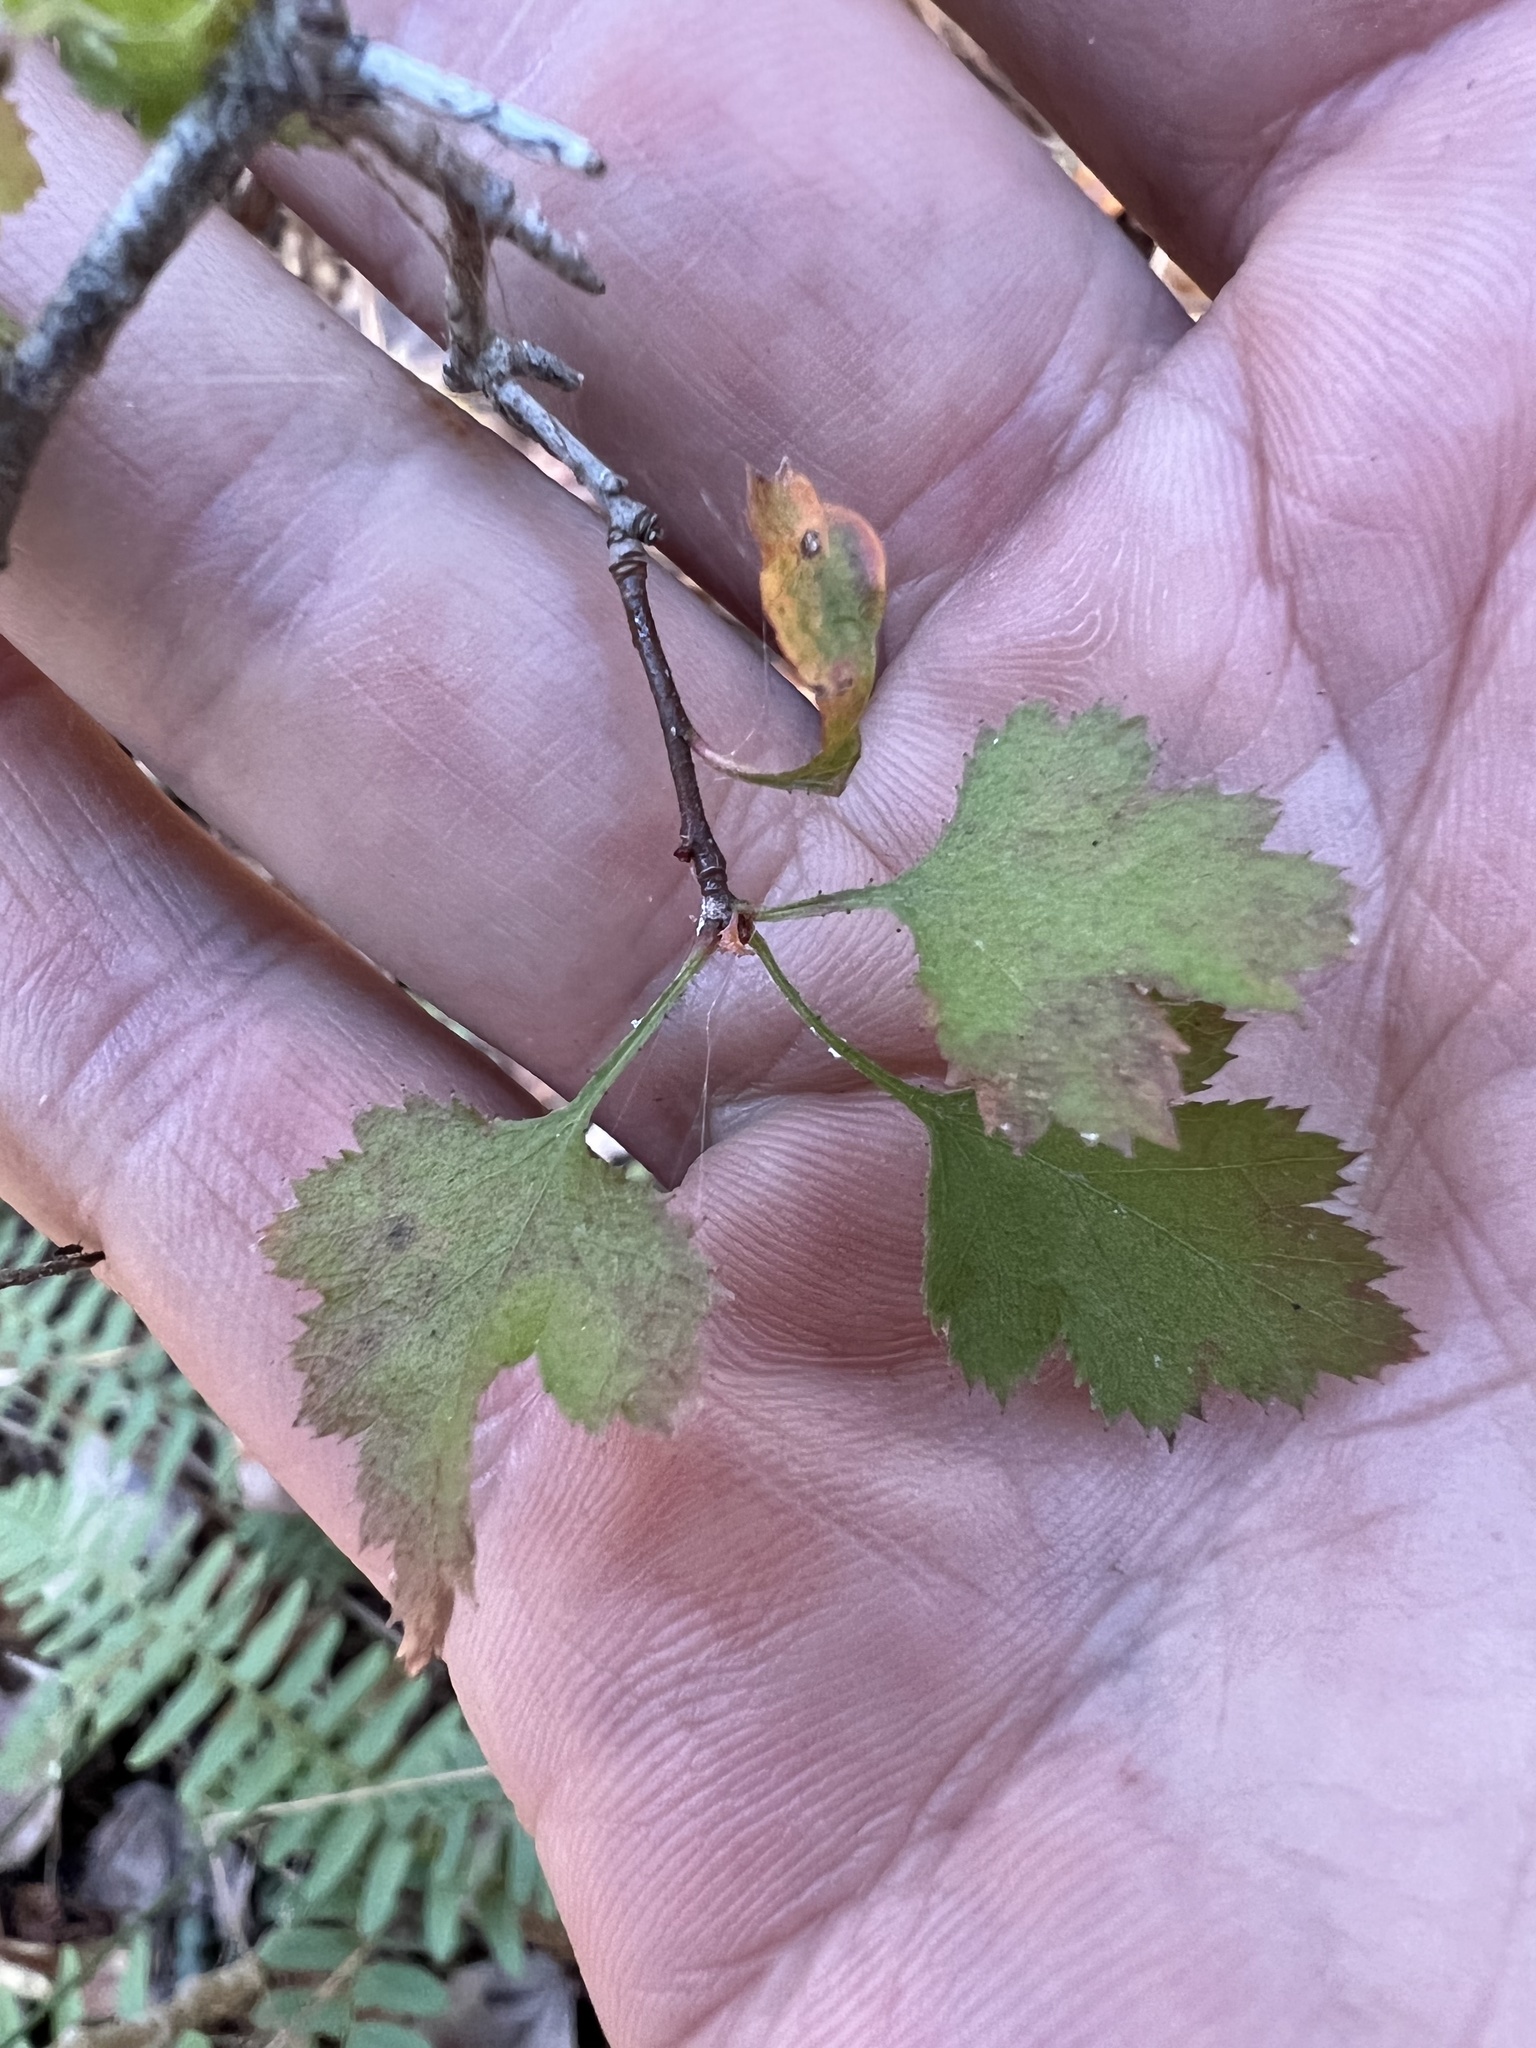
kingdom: Plantae
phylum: Tracheophyta
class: Magnoliopsida
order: Rosales
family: Rosaceae
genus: Crataegus
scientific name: Crataegus marshallii
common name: Parsley-hawthorn
